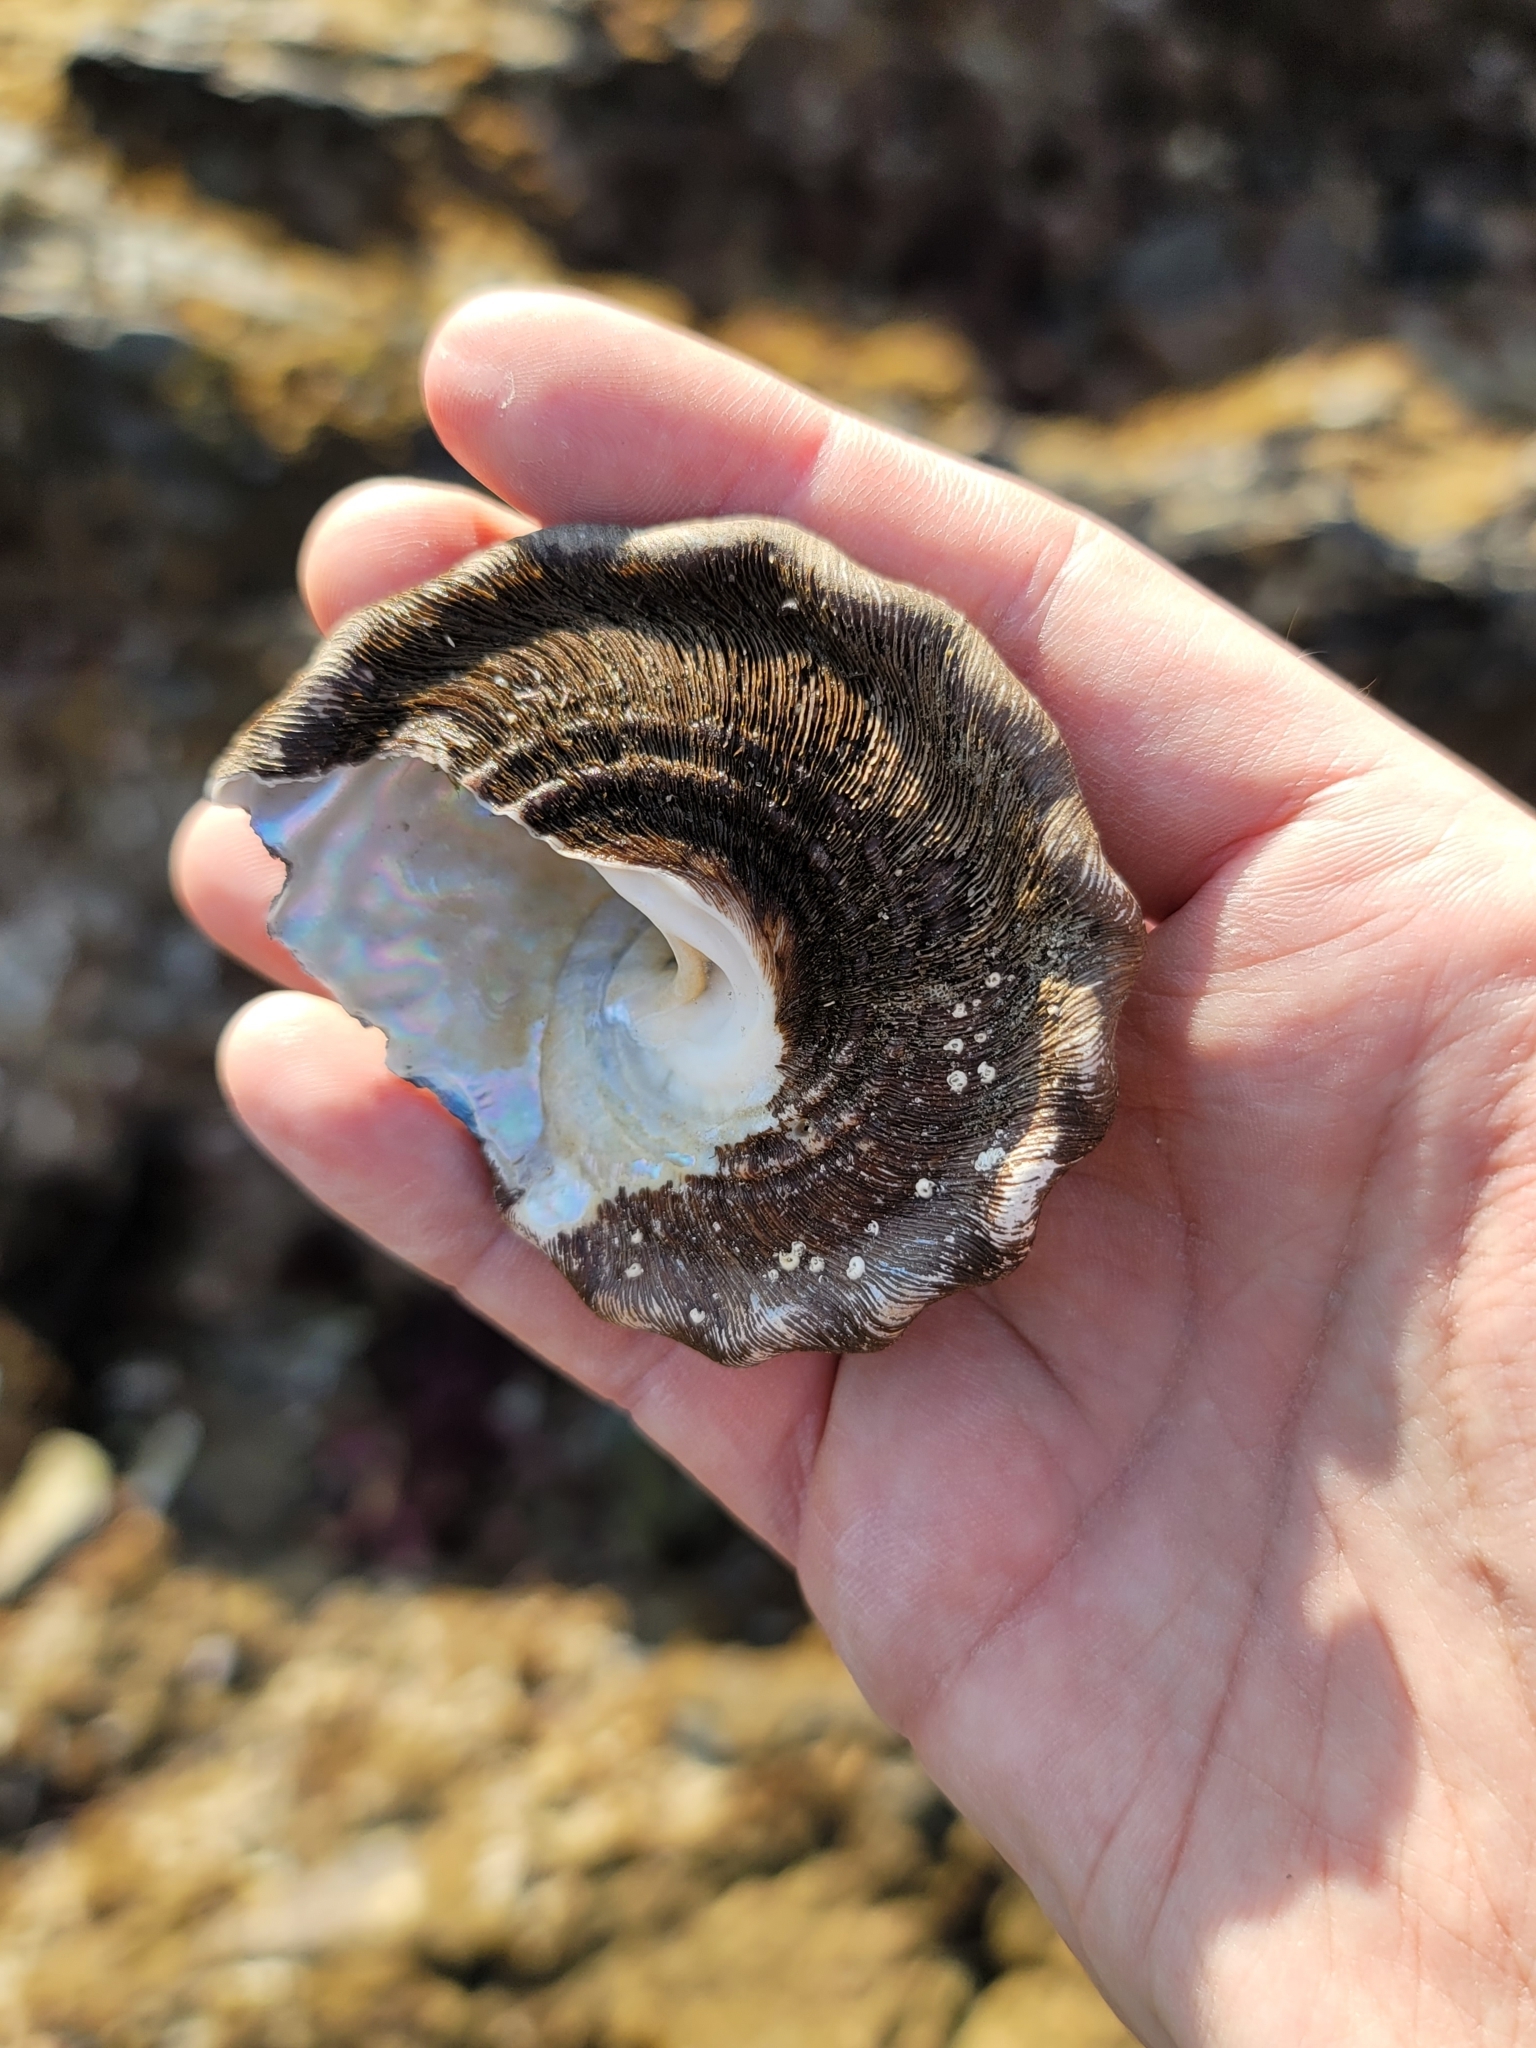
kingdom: Animalia
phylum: Mollusca
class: Gastropoda
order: Trochida
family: Turbinidae
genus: Megastraea
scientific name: Megastraea undosa
